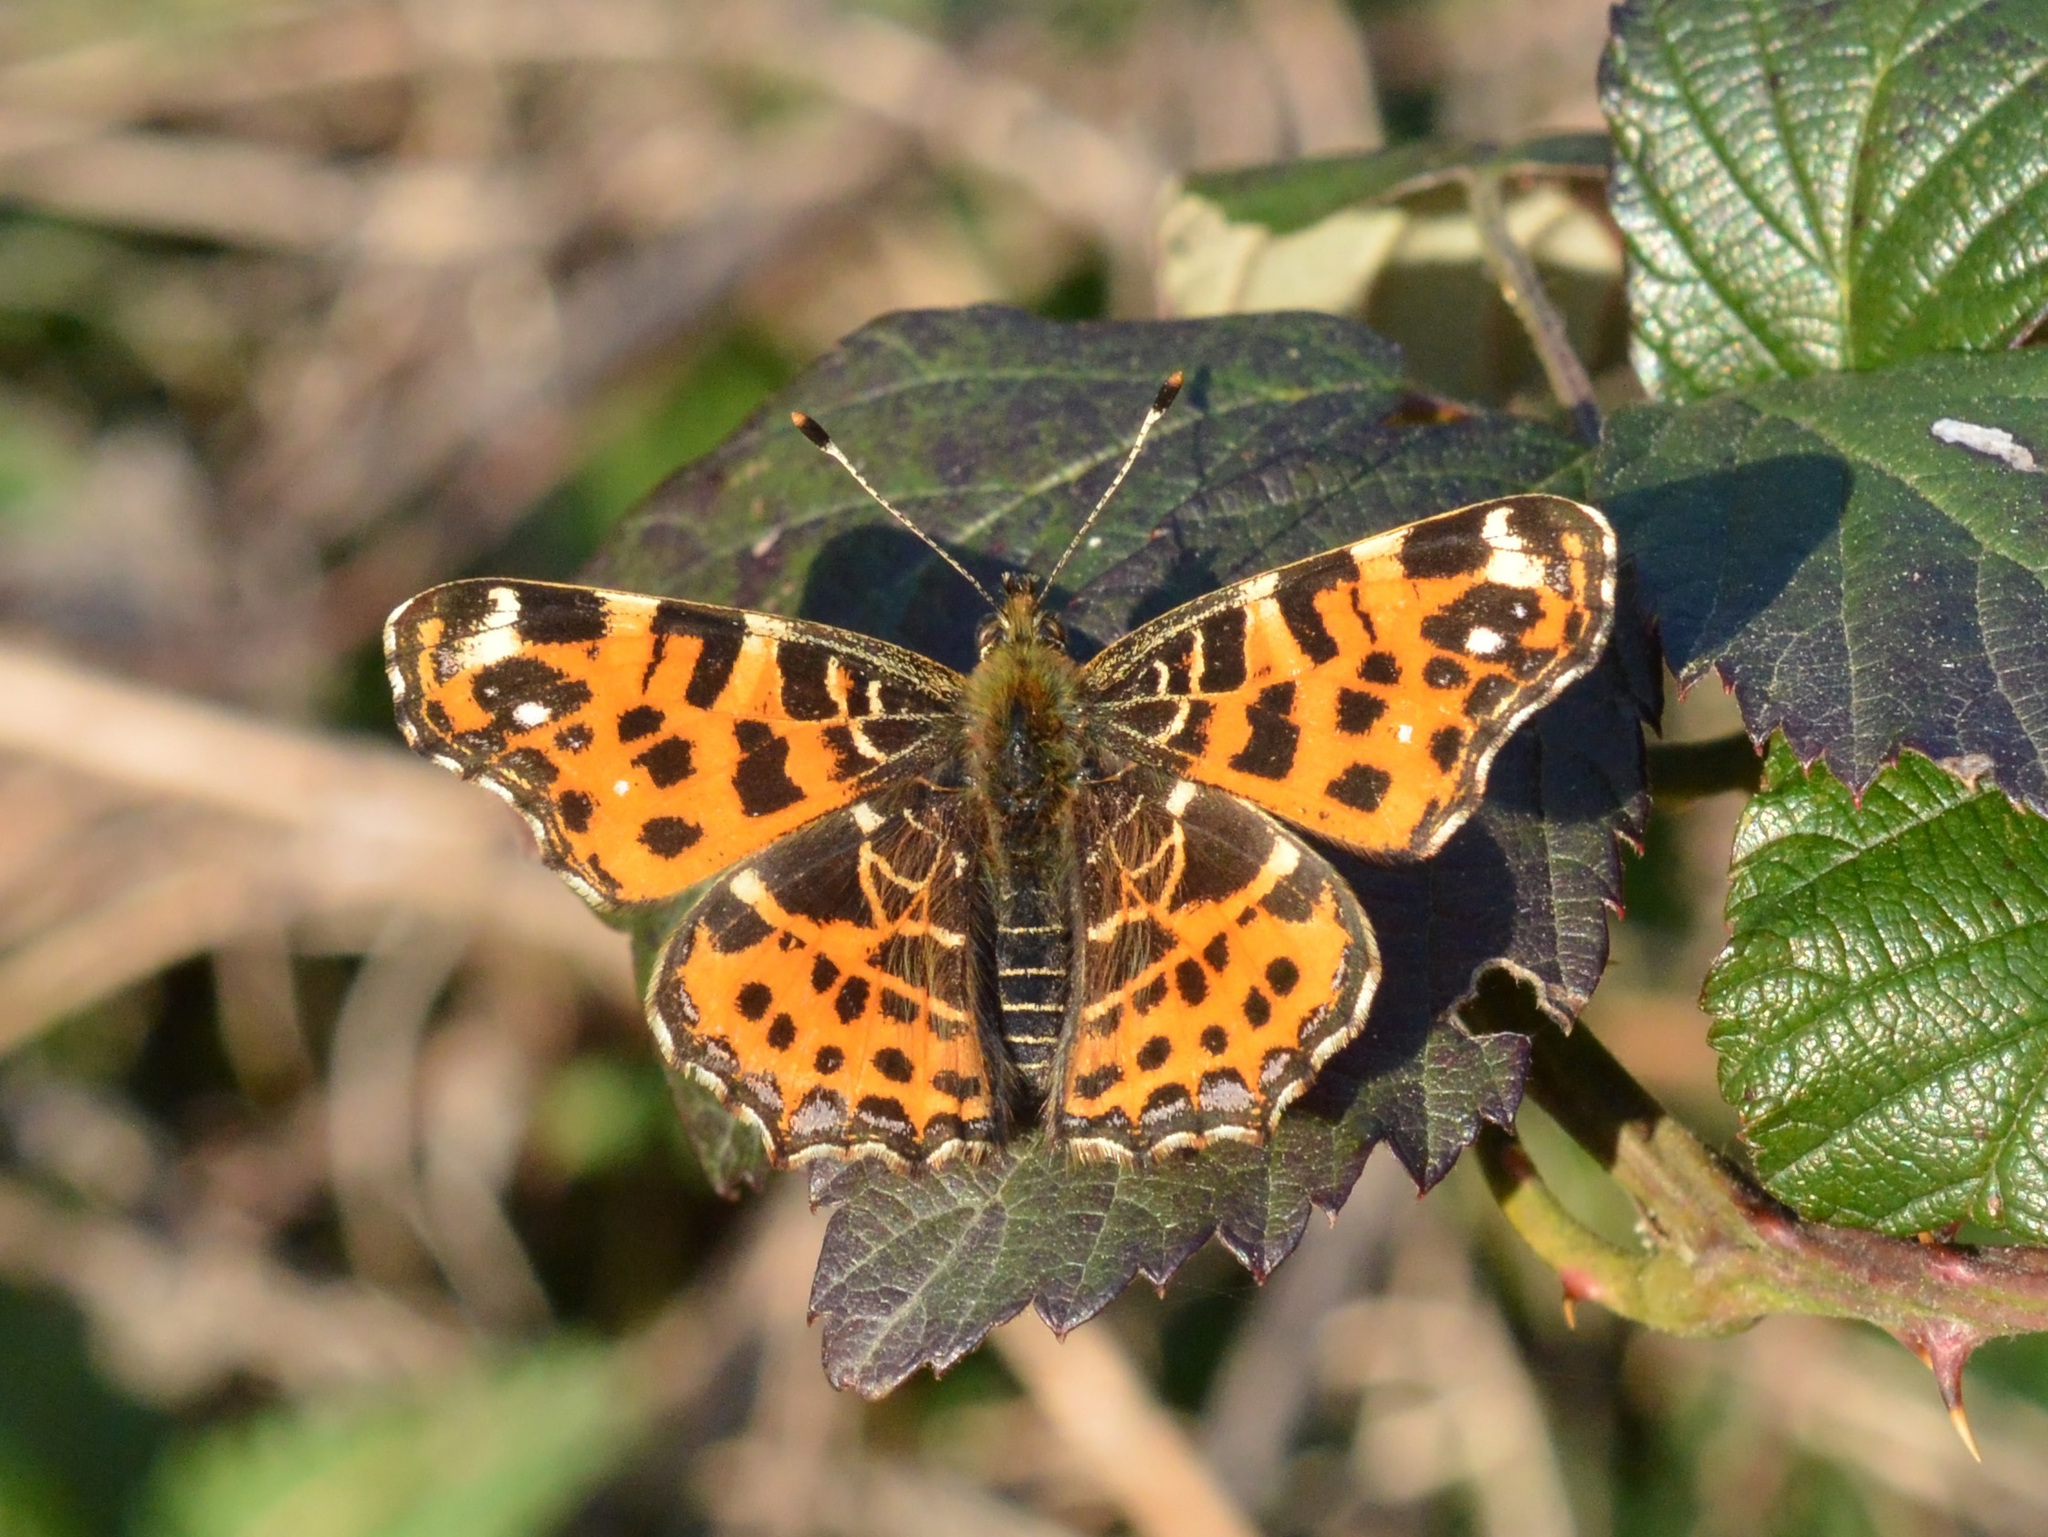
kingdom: Animalia
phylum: Arthropoda
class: Insecta
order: Lepidoptera
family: Nymphalidae
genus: Araschnia
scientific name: Araschnia levana
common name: Map butterfly
